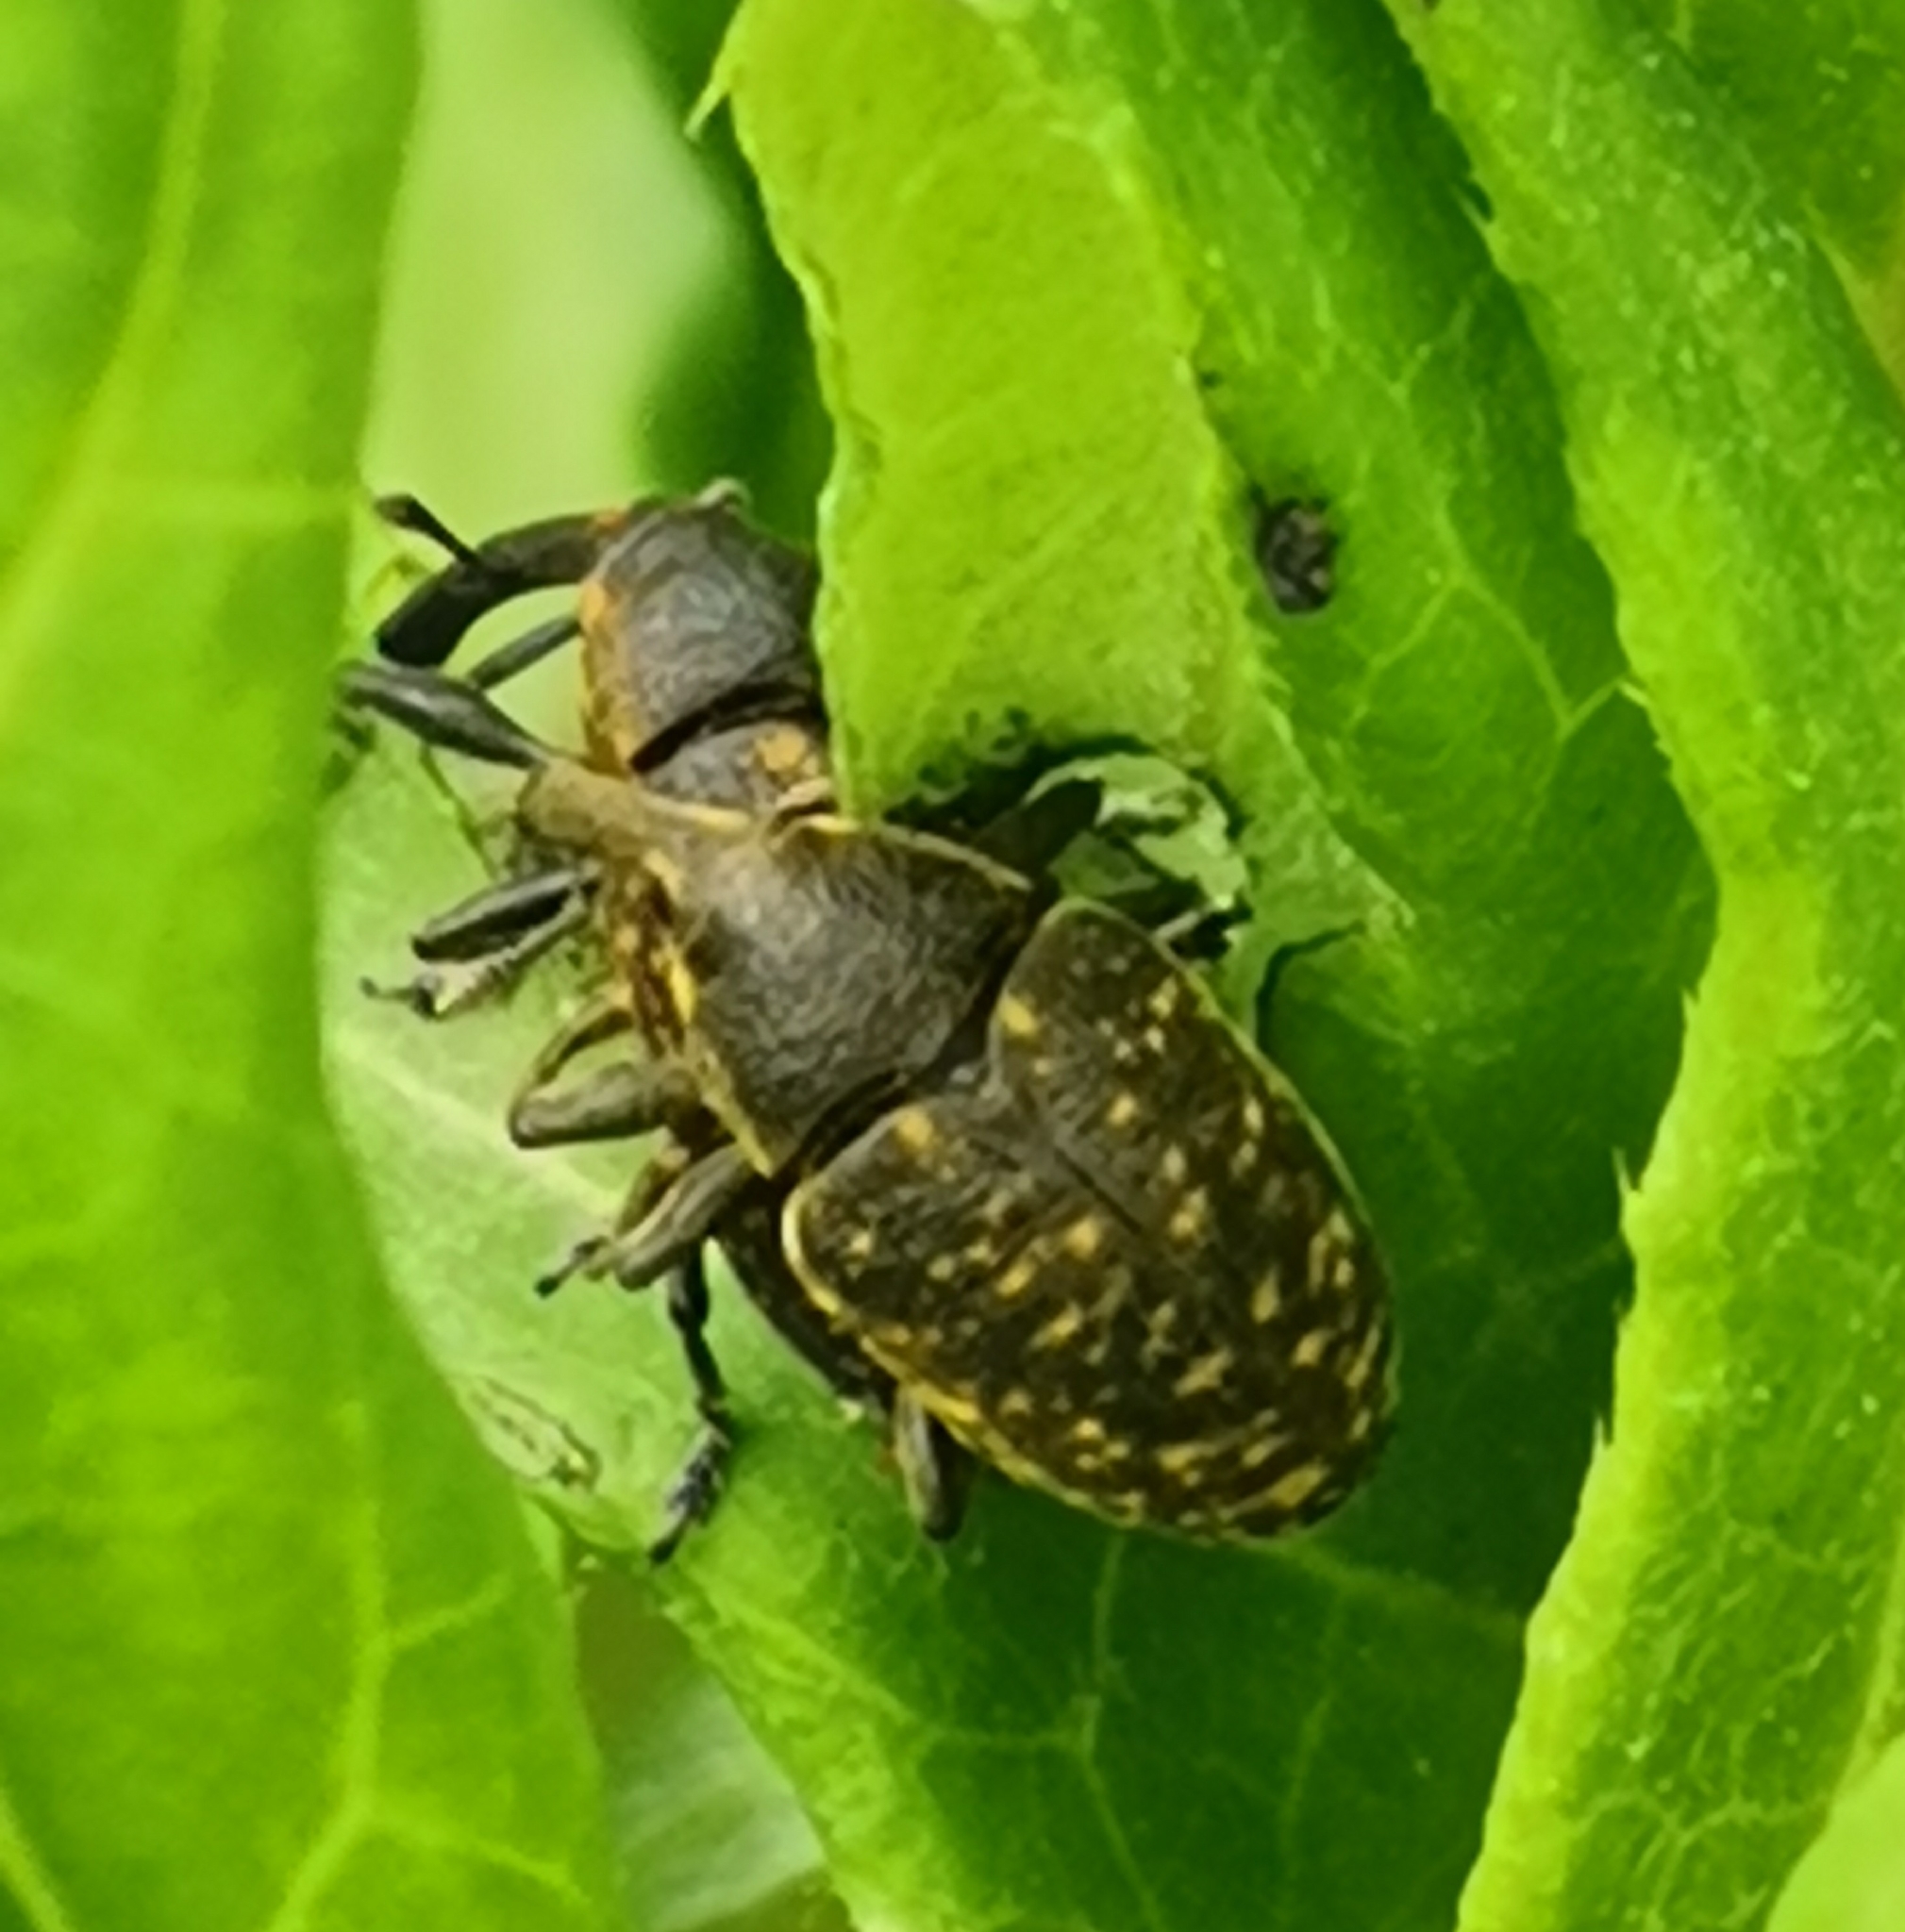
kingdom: Animalia
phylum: Arthropoda
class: Insecta
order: Coleoptera
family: Curculionidae
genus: Larinus
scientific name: Larinus sturnus
